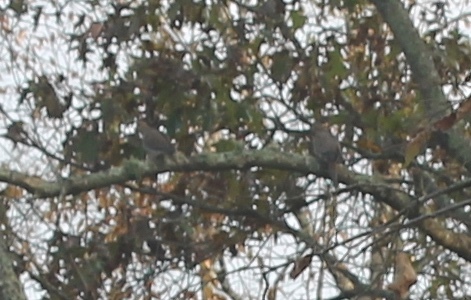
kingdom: Animalia
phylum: Chordata
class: Aves
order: Columbiformes
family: Columbidae
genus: Zenaida
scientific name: Zenaida macroura
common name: Mourning dove
